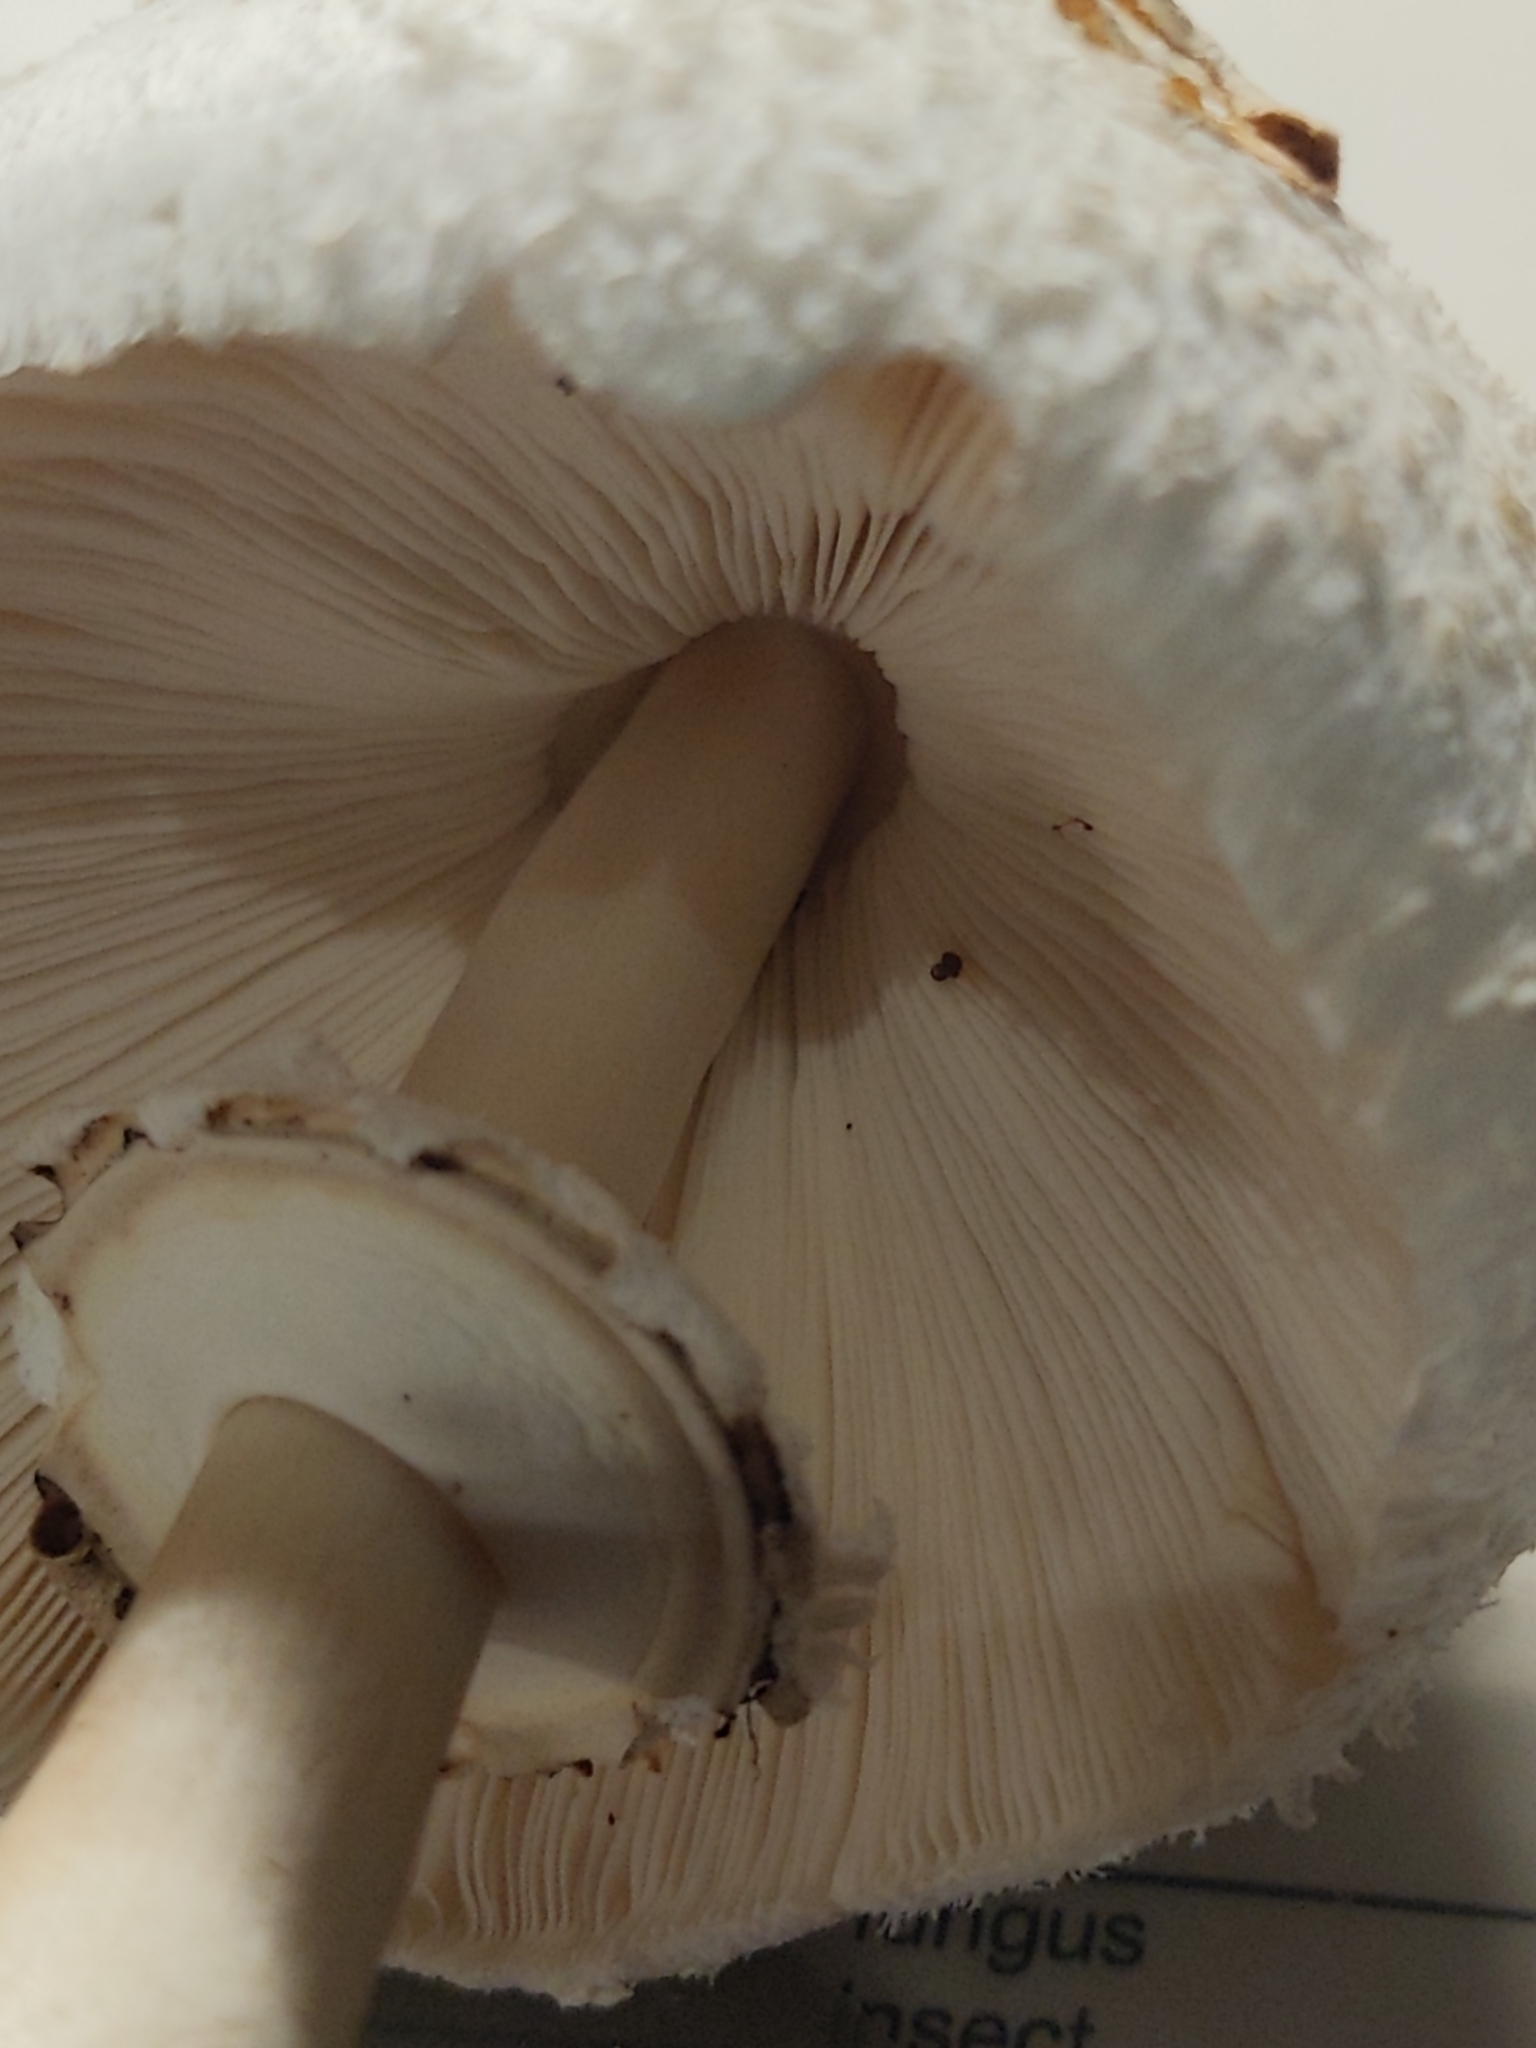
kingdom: Fungi
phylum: Basidiomycota
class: Agaricomycetes
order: Agaricales
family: Agaricaceae
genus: Chlorophyllum
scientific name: Chlorophyllum molybdites
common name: False parasol
